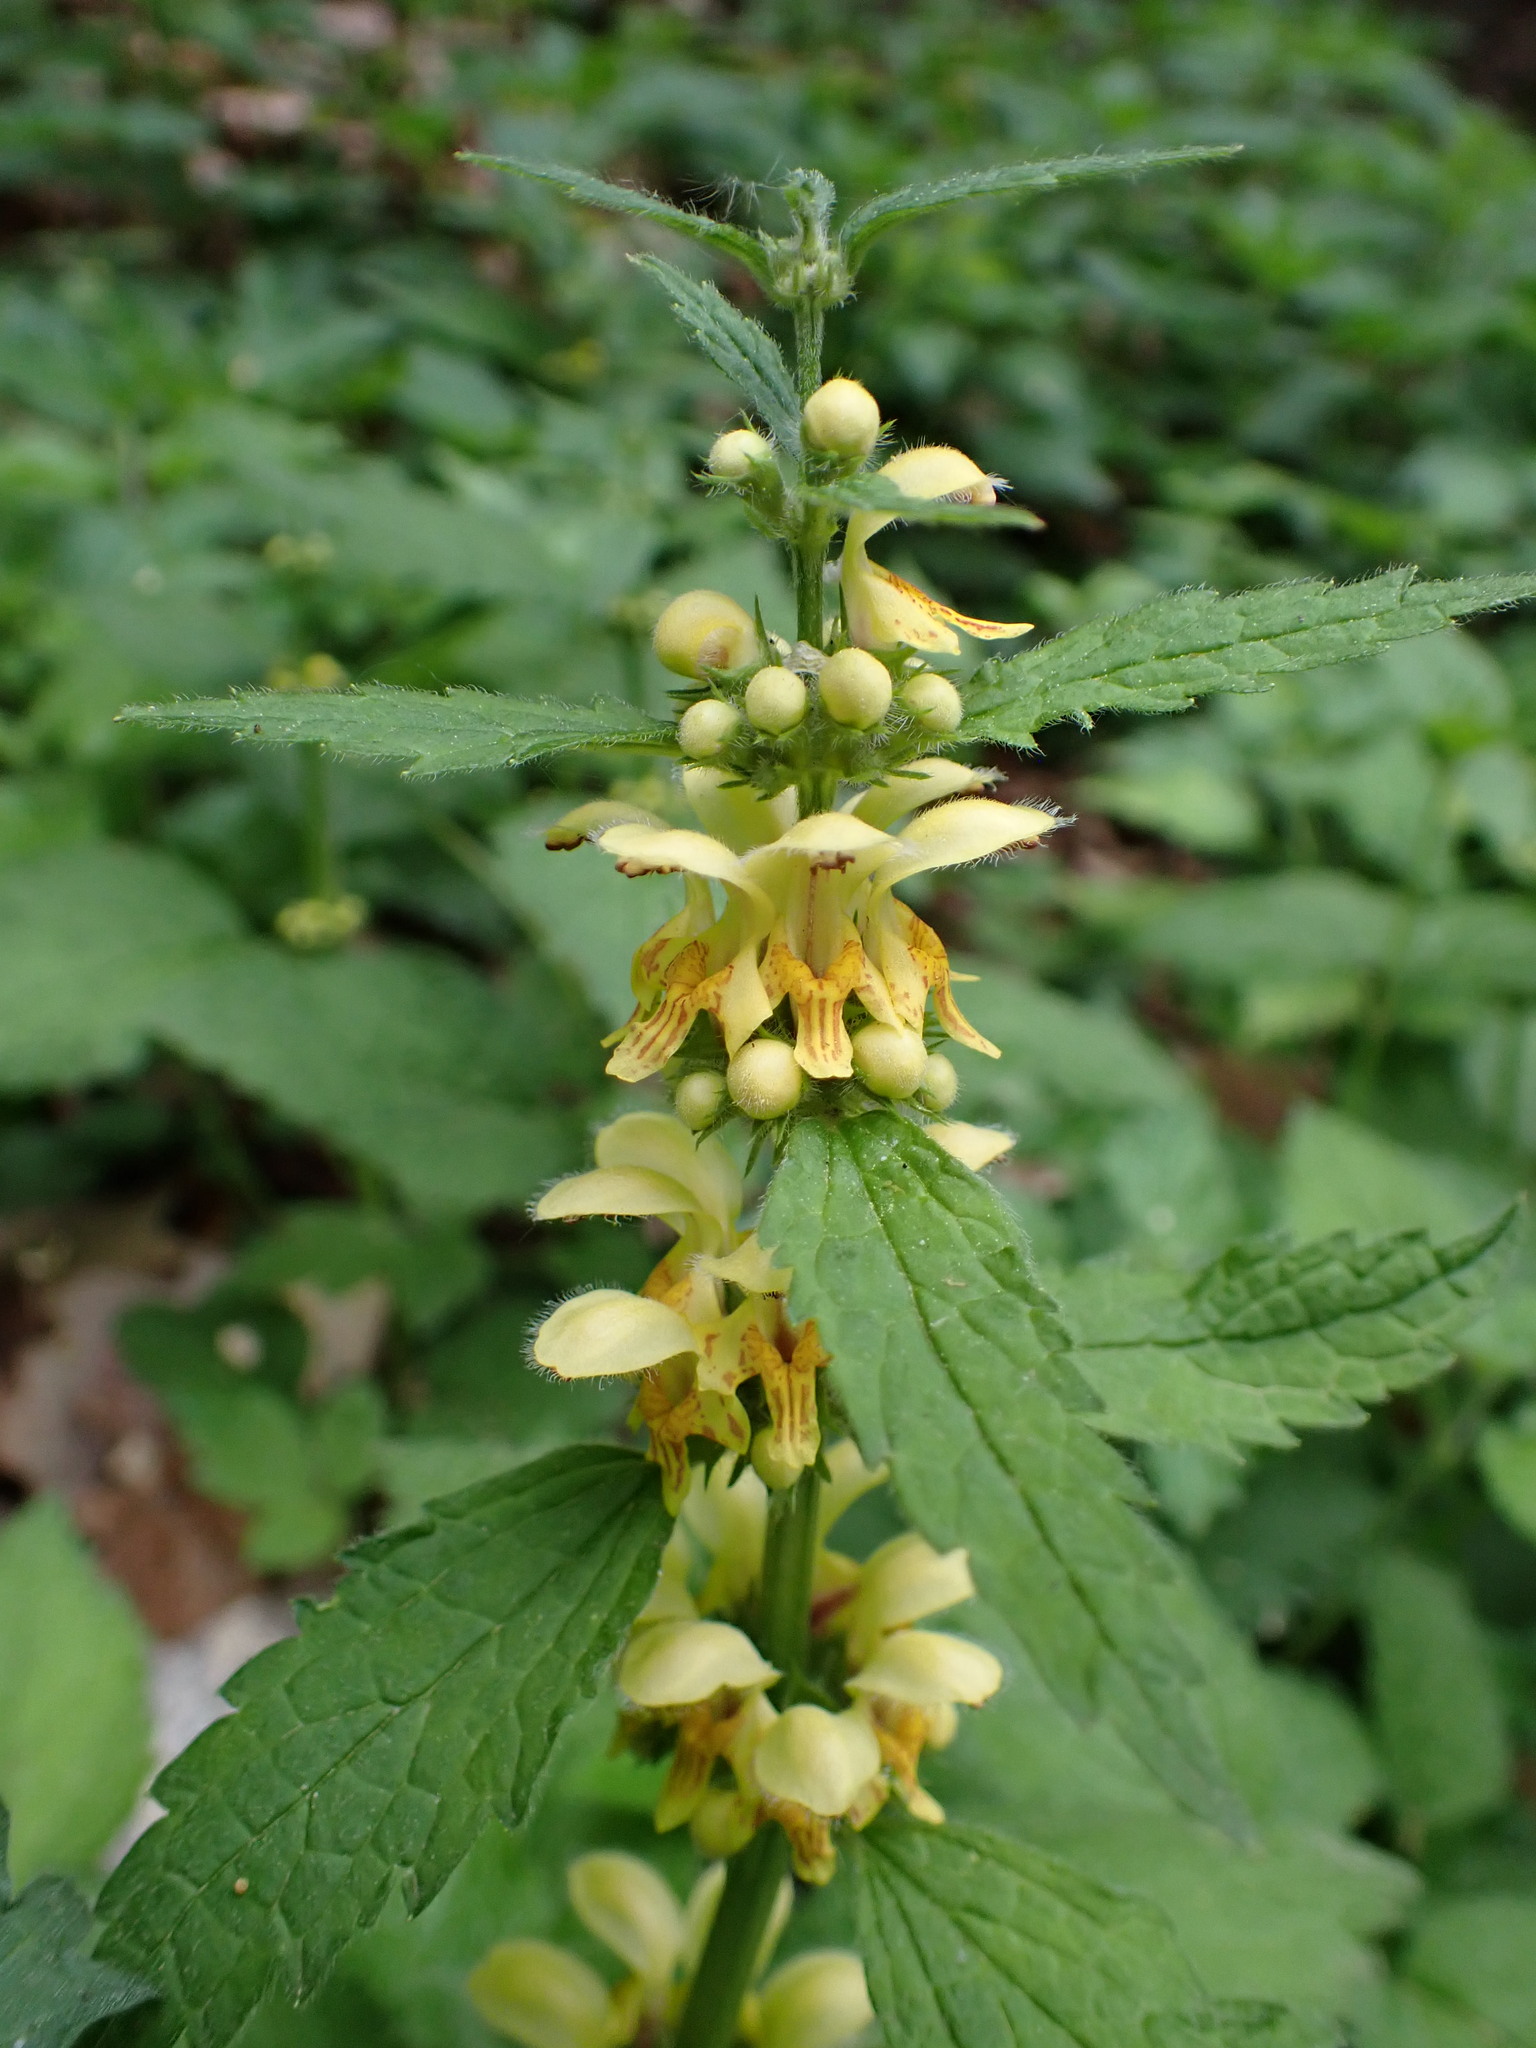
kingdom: Plantae
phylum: Tracheophyta
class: Magnoliopsida
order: Lamiales
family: Lamiaceae
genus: Lamium
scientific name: Lamium galeobdolon
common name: Yellow archangel
